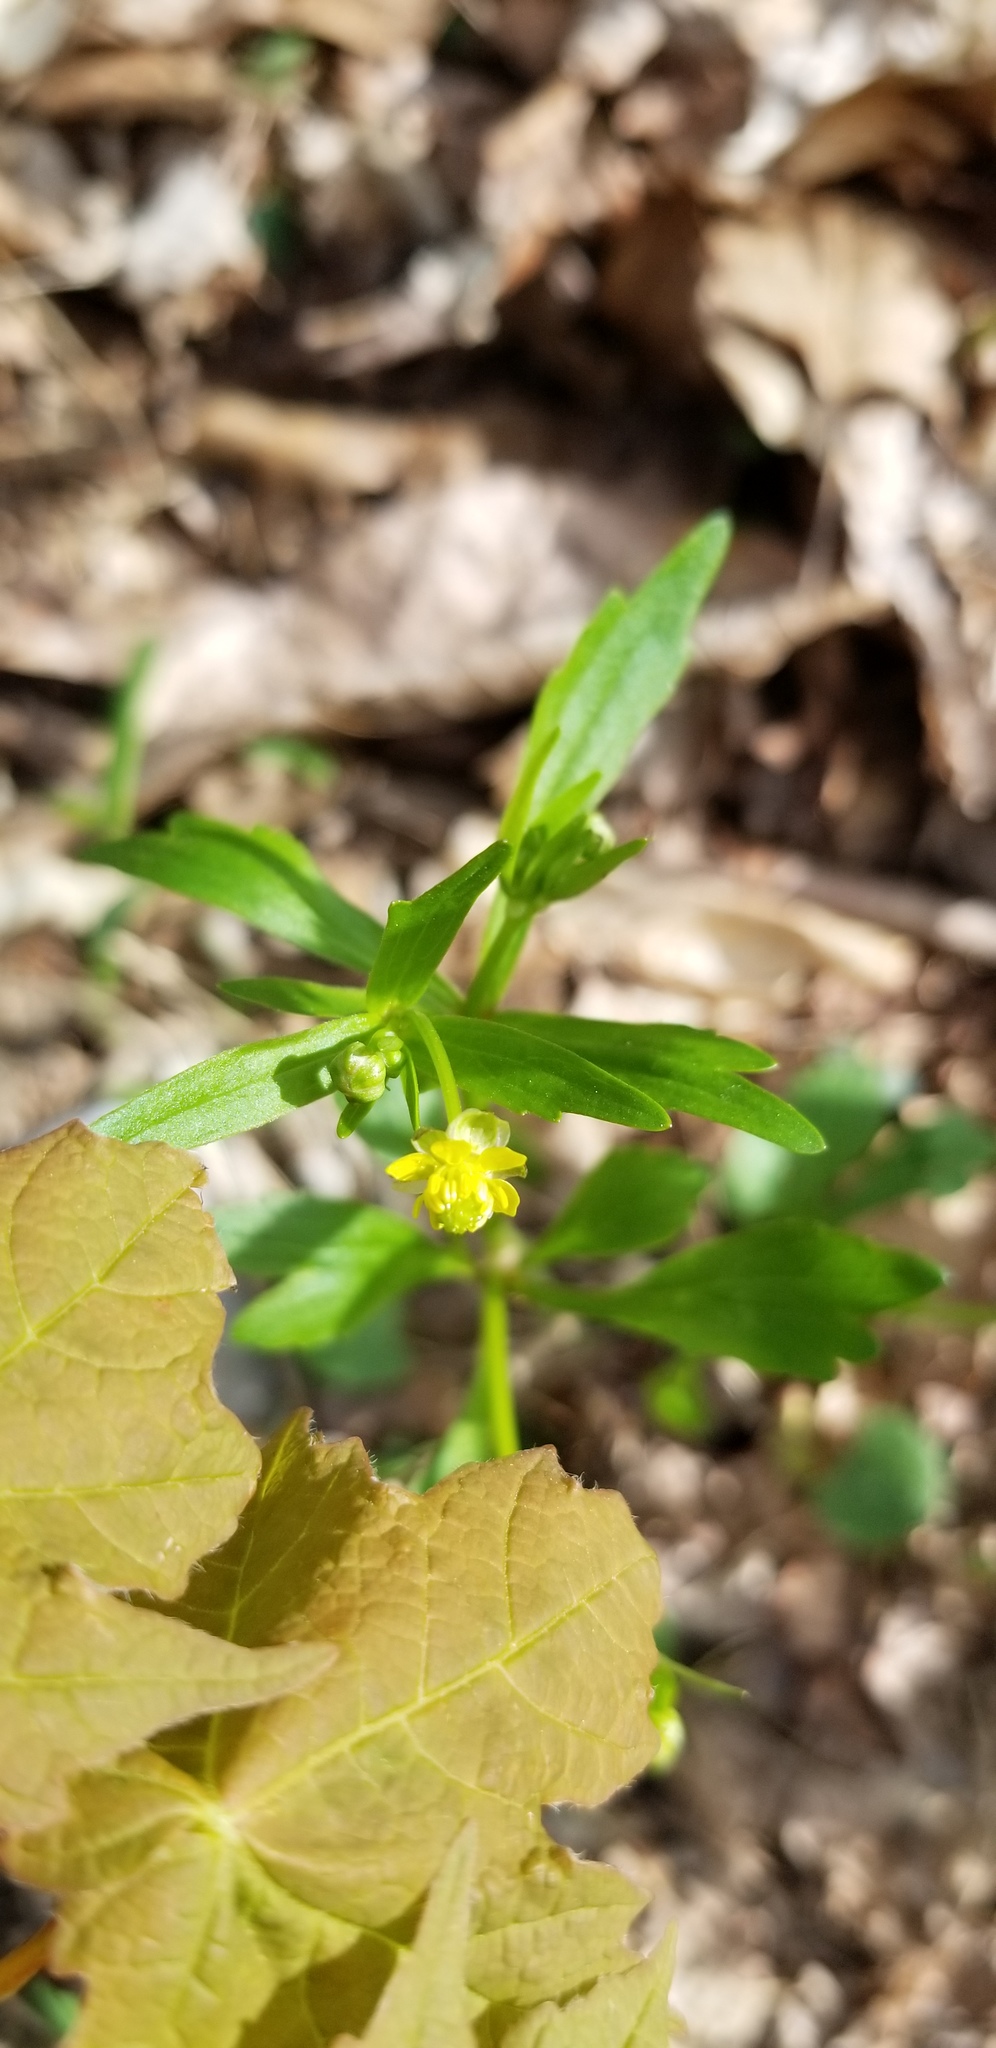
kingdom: Plantae
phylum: Tracheophyta
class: Magnoliopsida
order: Ranunculales
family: Ranunculaceae
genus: Ranunculus
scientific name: Ranunculus abortivus
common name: Early wood buttercup
